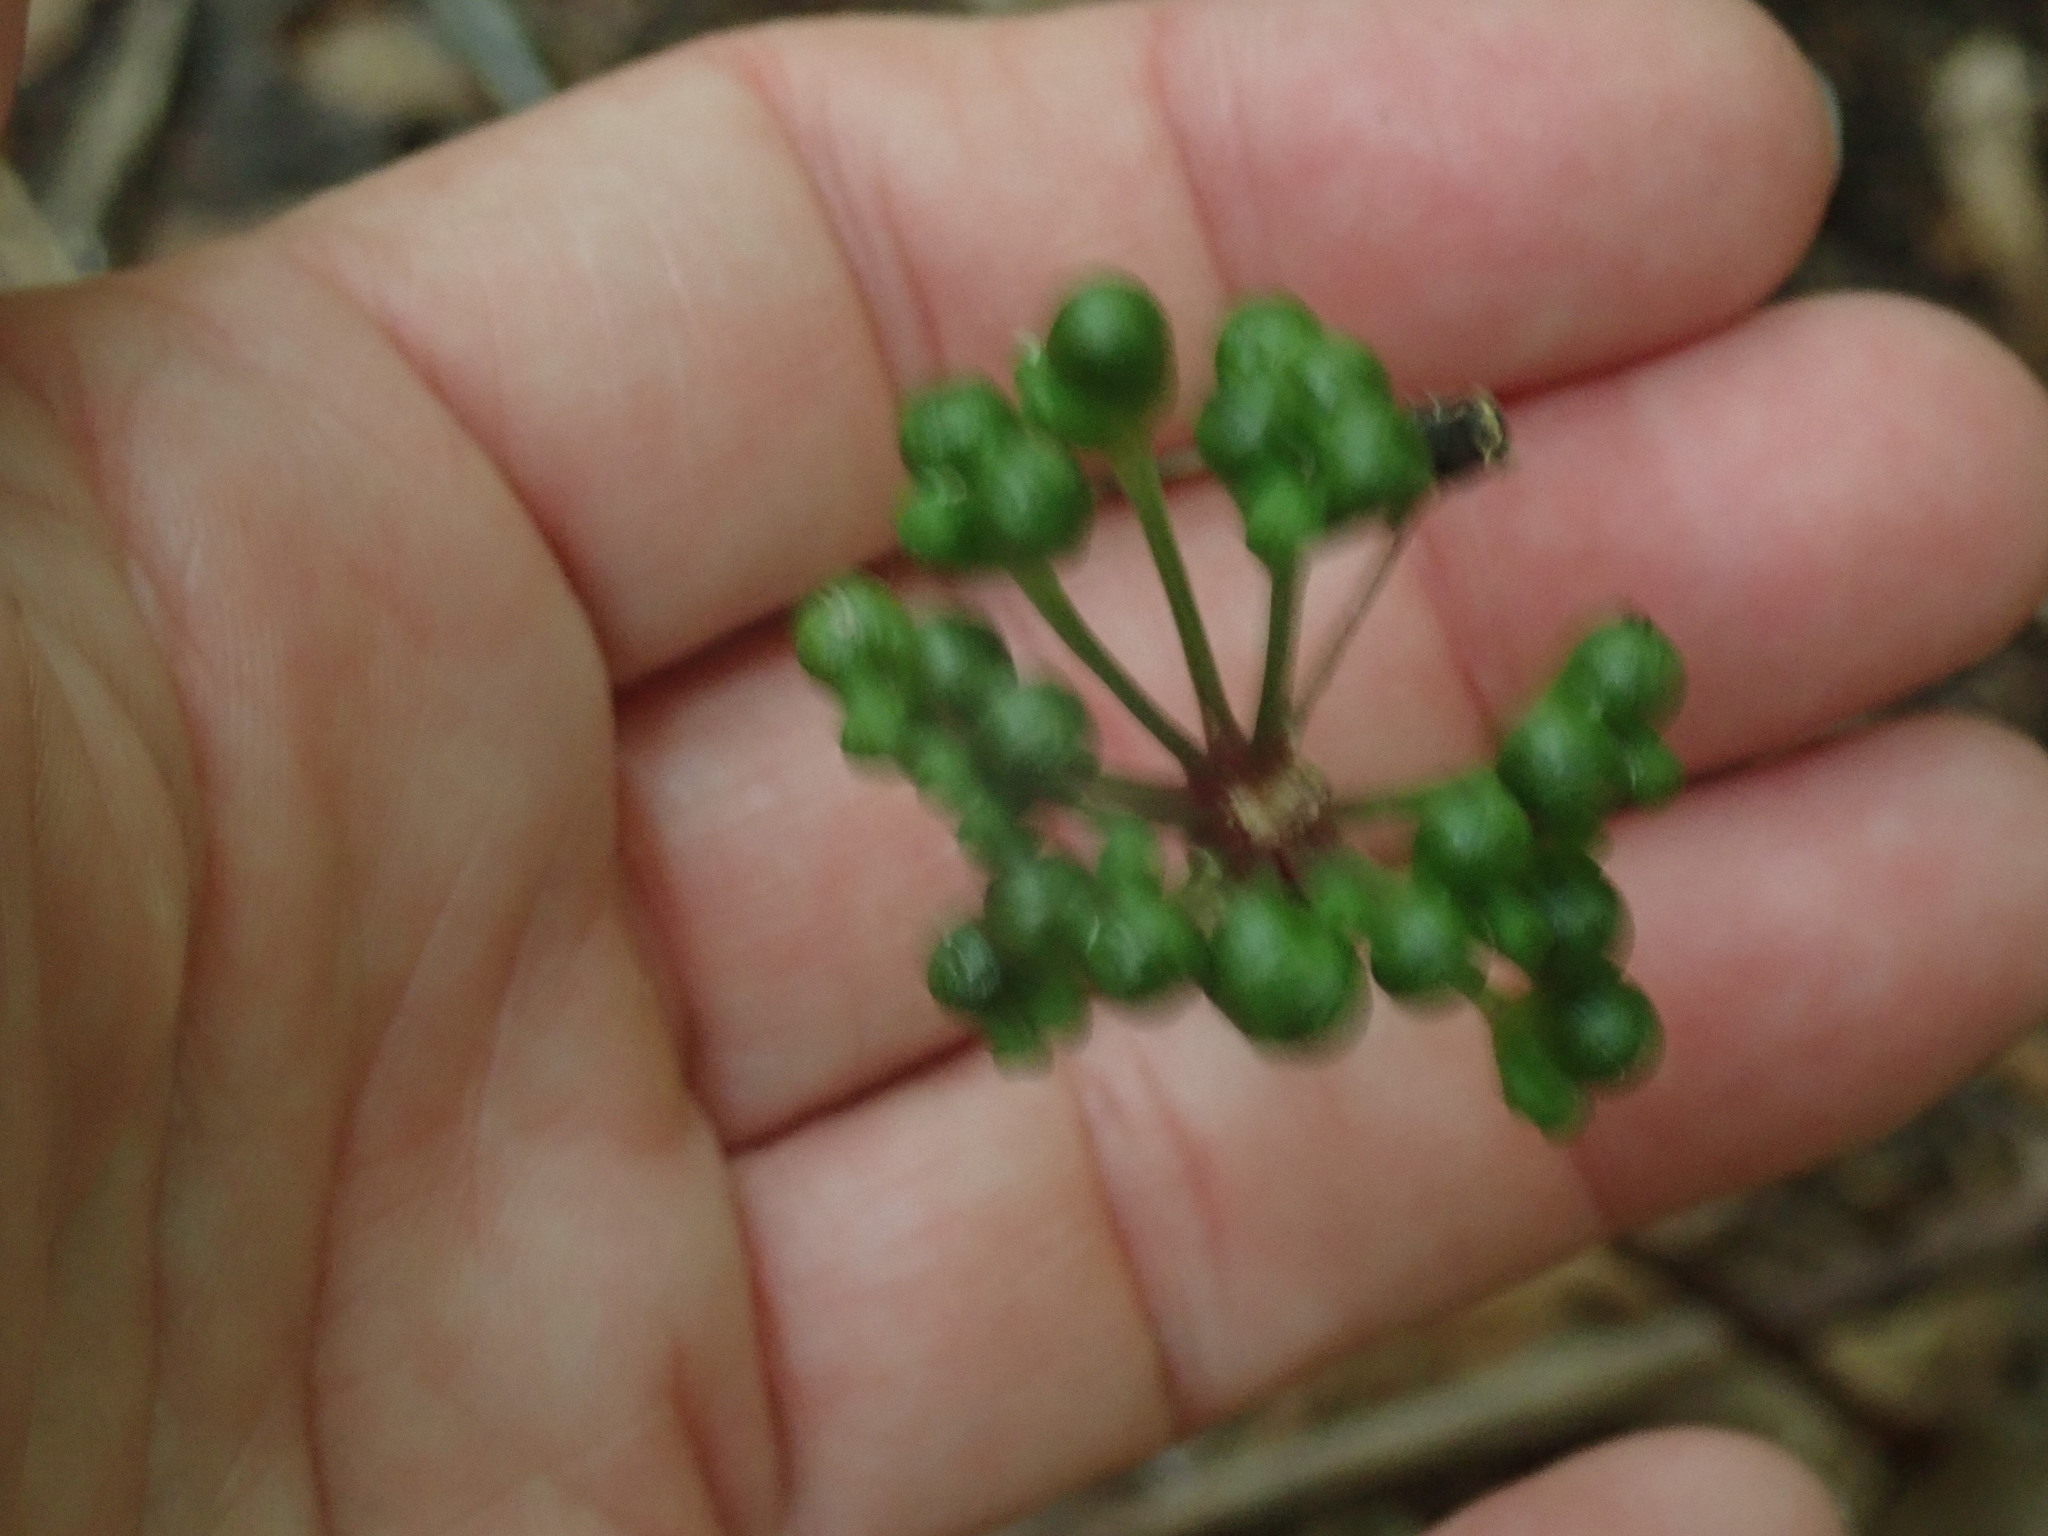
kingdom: Plantae
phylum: Tracheophyta
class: Liliopsida
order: Asparagales
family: Amaryllidaceae
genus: Allium
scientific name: Allium tricoccum
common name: Ramp
